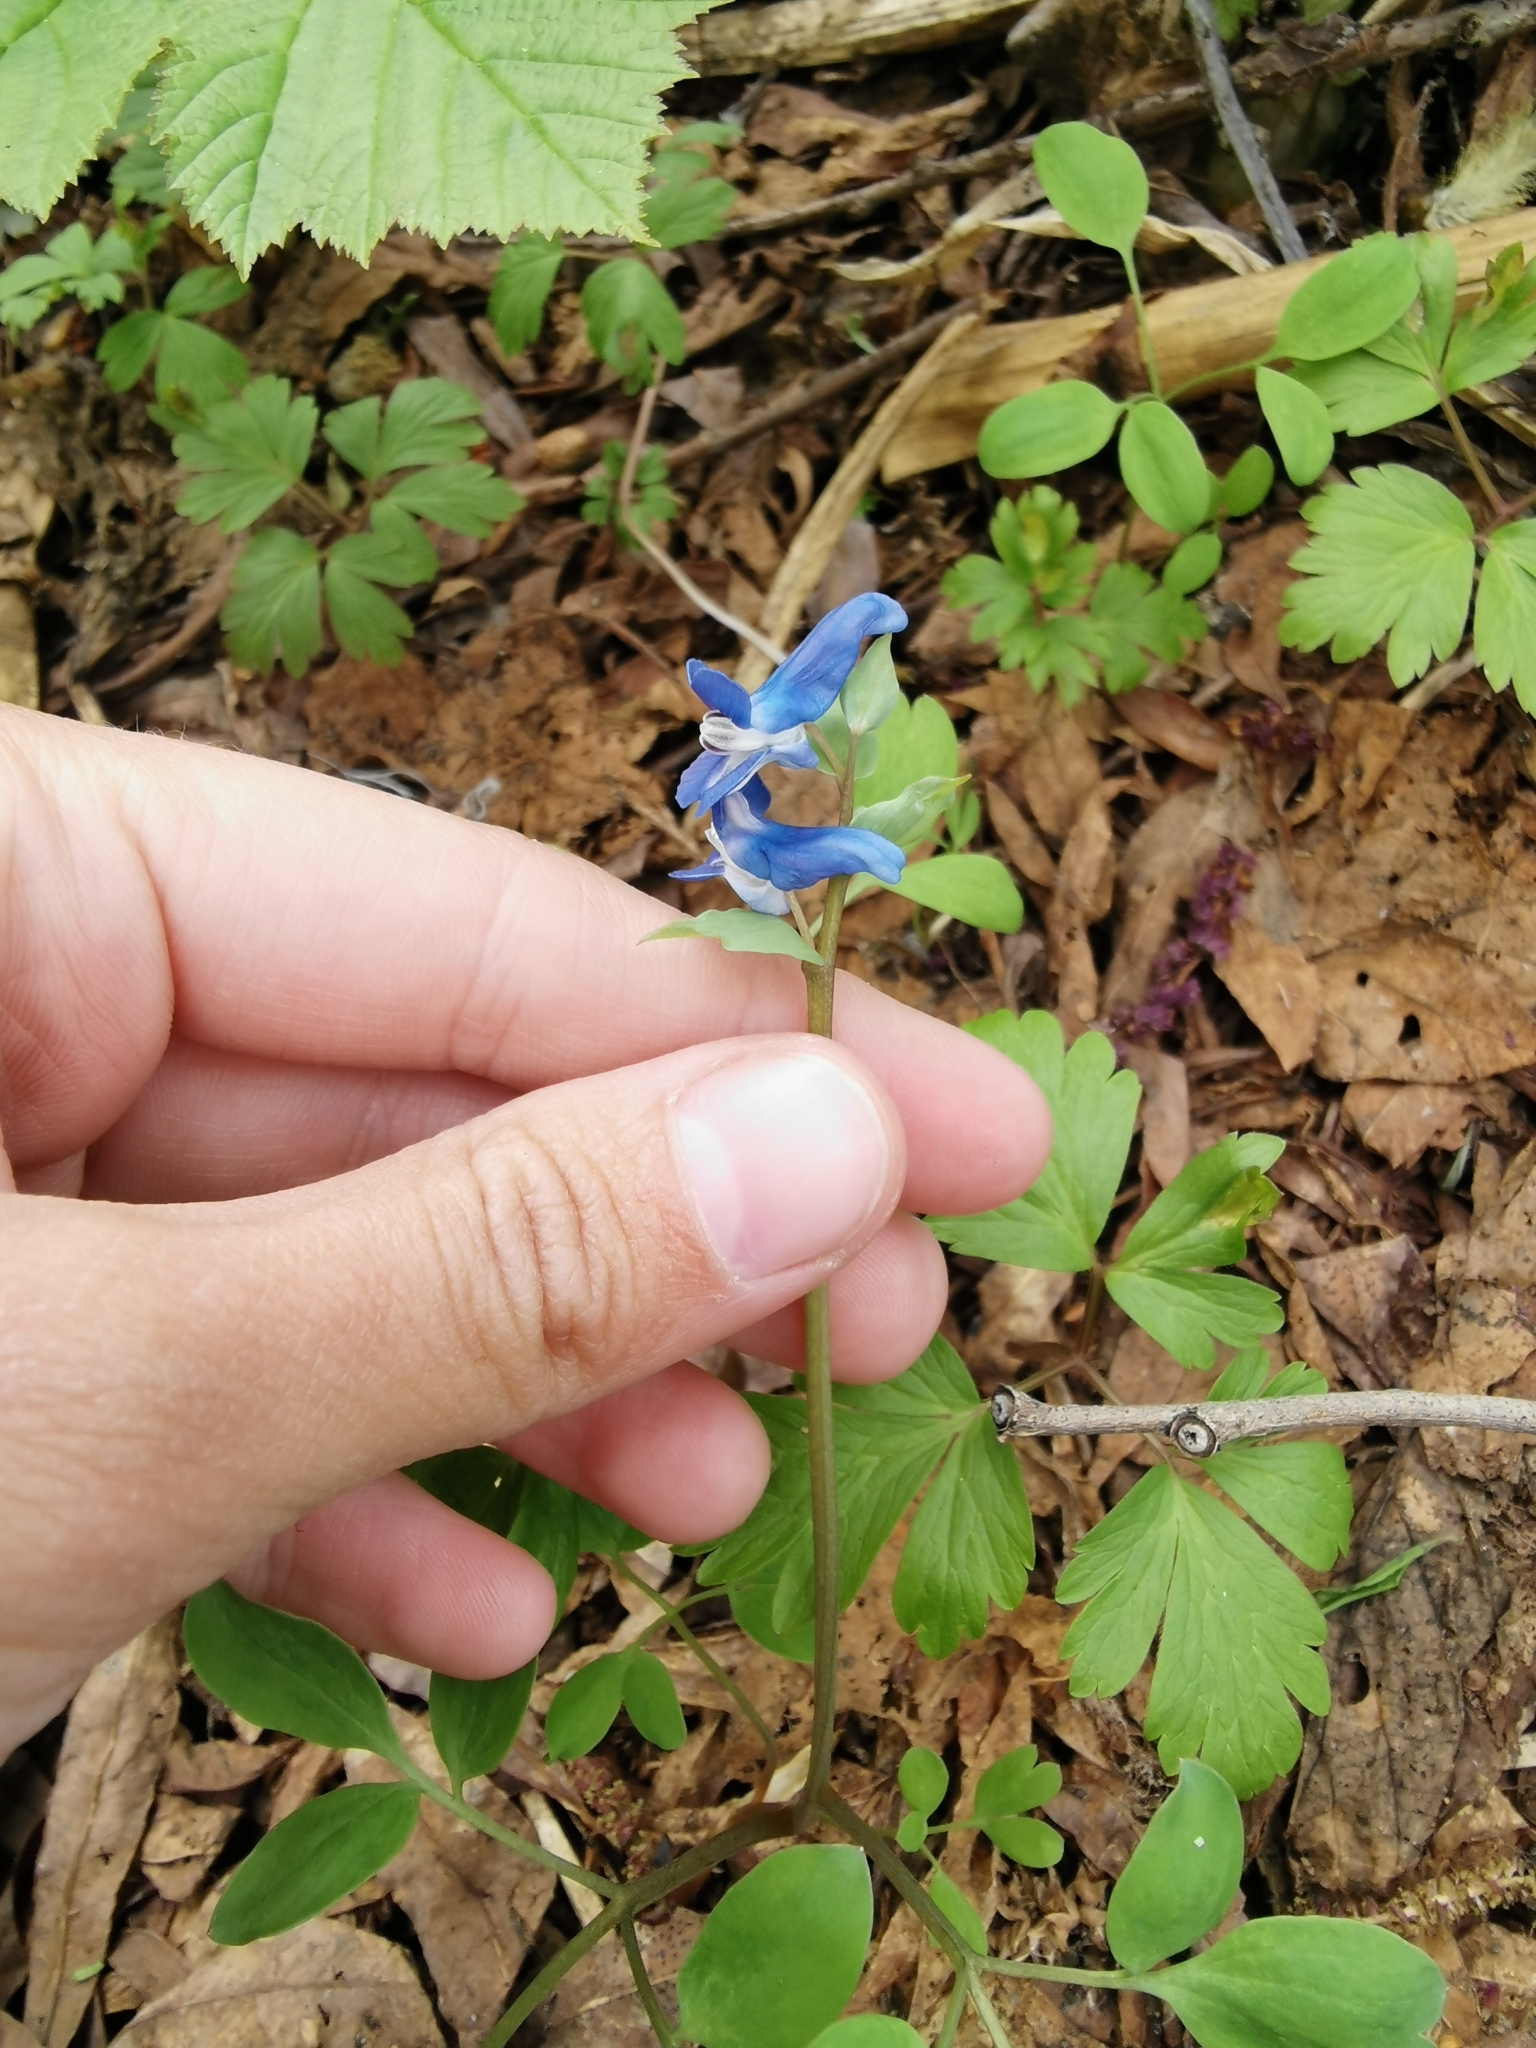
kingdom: Plantae
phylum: Tracheophyta
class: Magnoliopsida
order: Ranunculales
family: Papaveraceae
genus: Corydalis
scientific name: Corydalis ambigua
